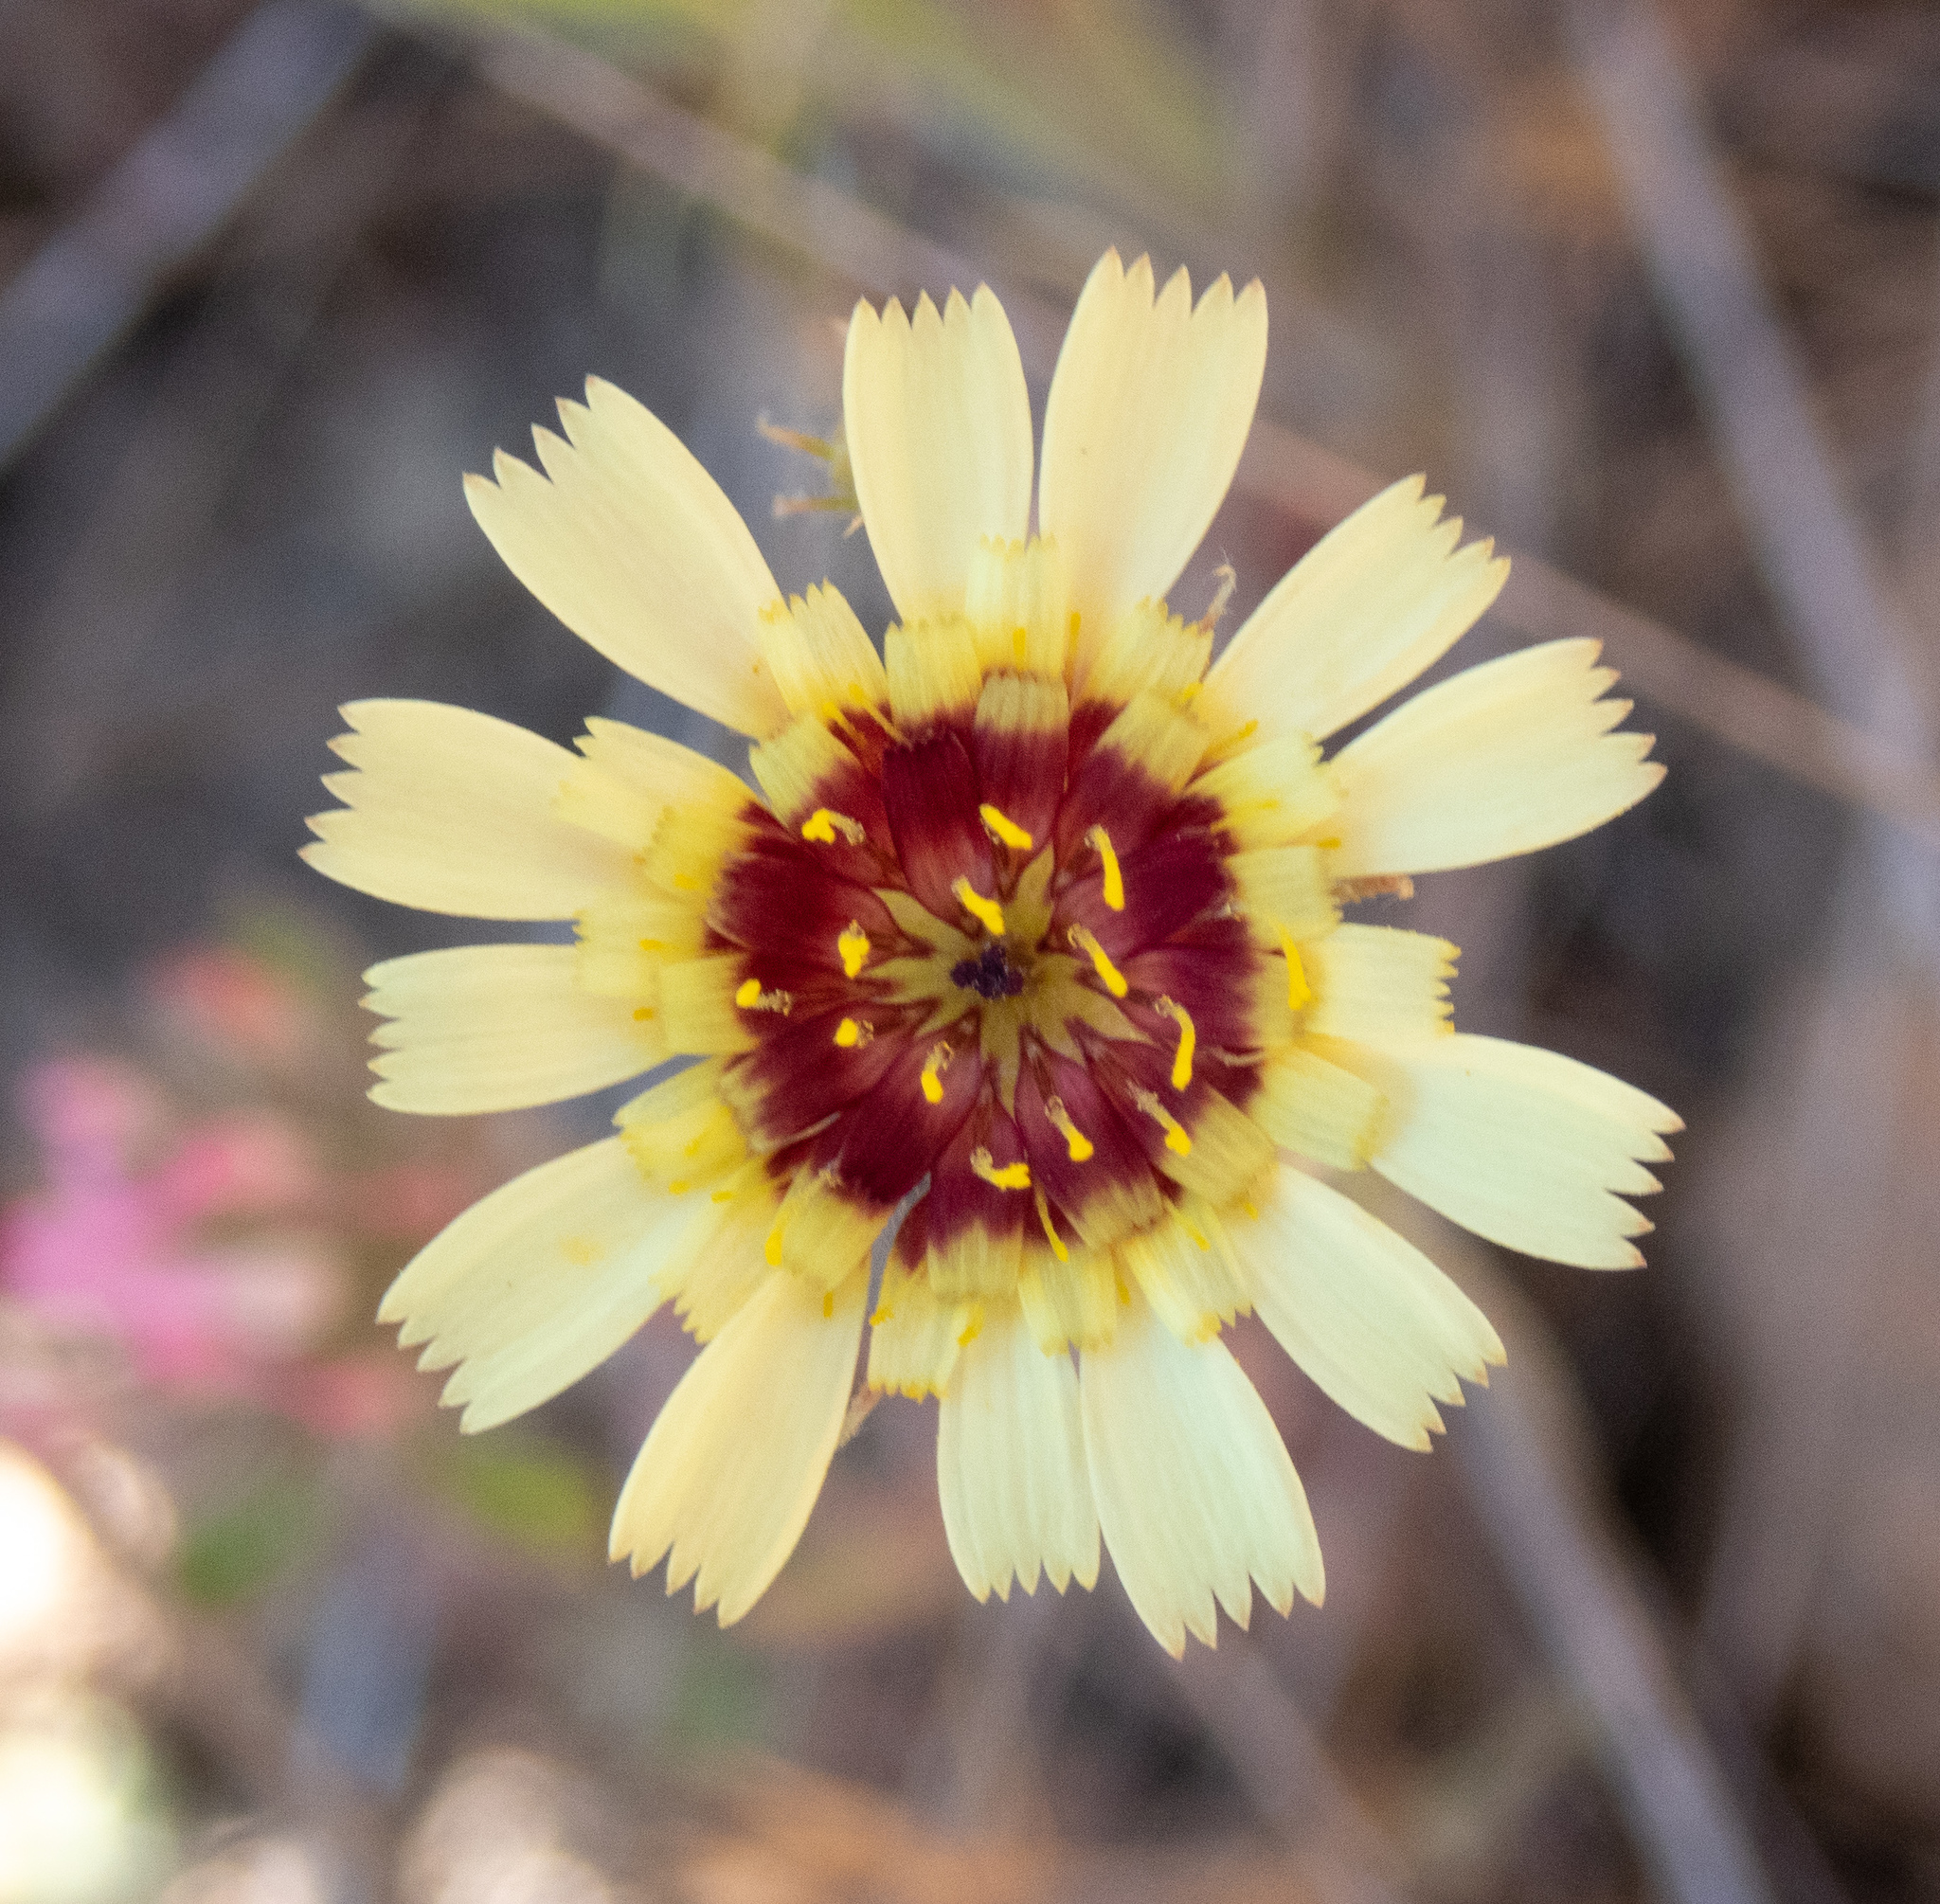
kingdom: Plantae
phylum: Tracheophyta
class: Magnoliopsida
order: Asterales
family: Asteraceae
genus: Tolpis
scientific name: Tolpis barbata
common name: Yellow hawkweed
